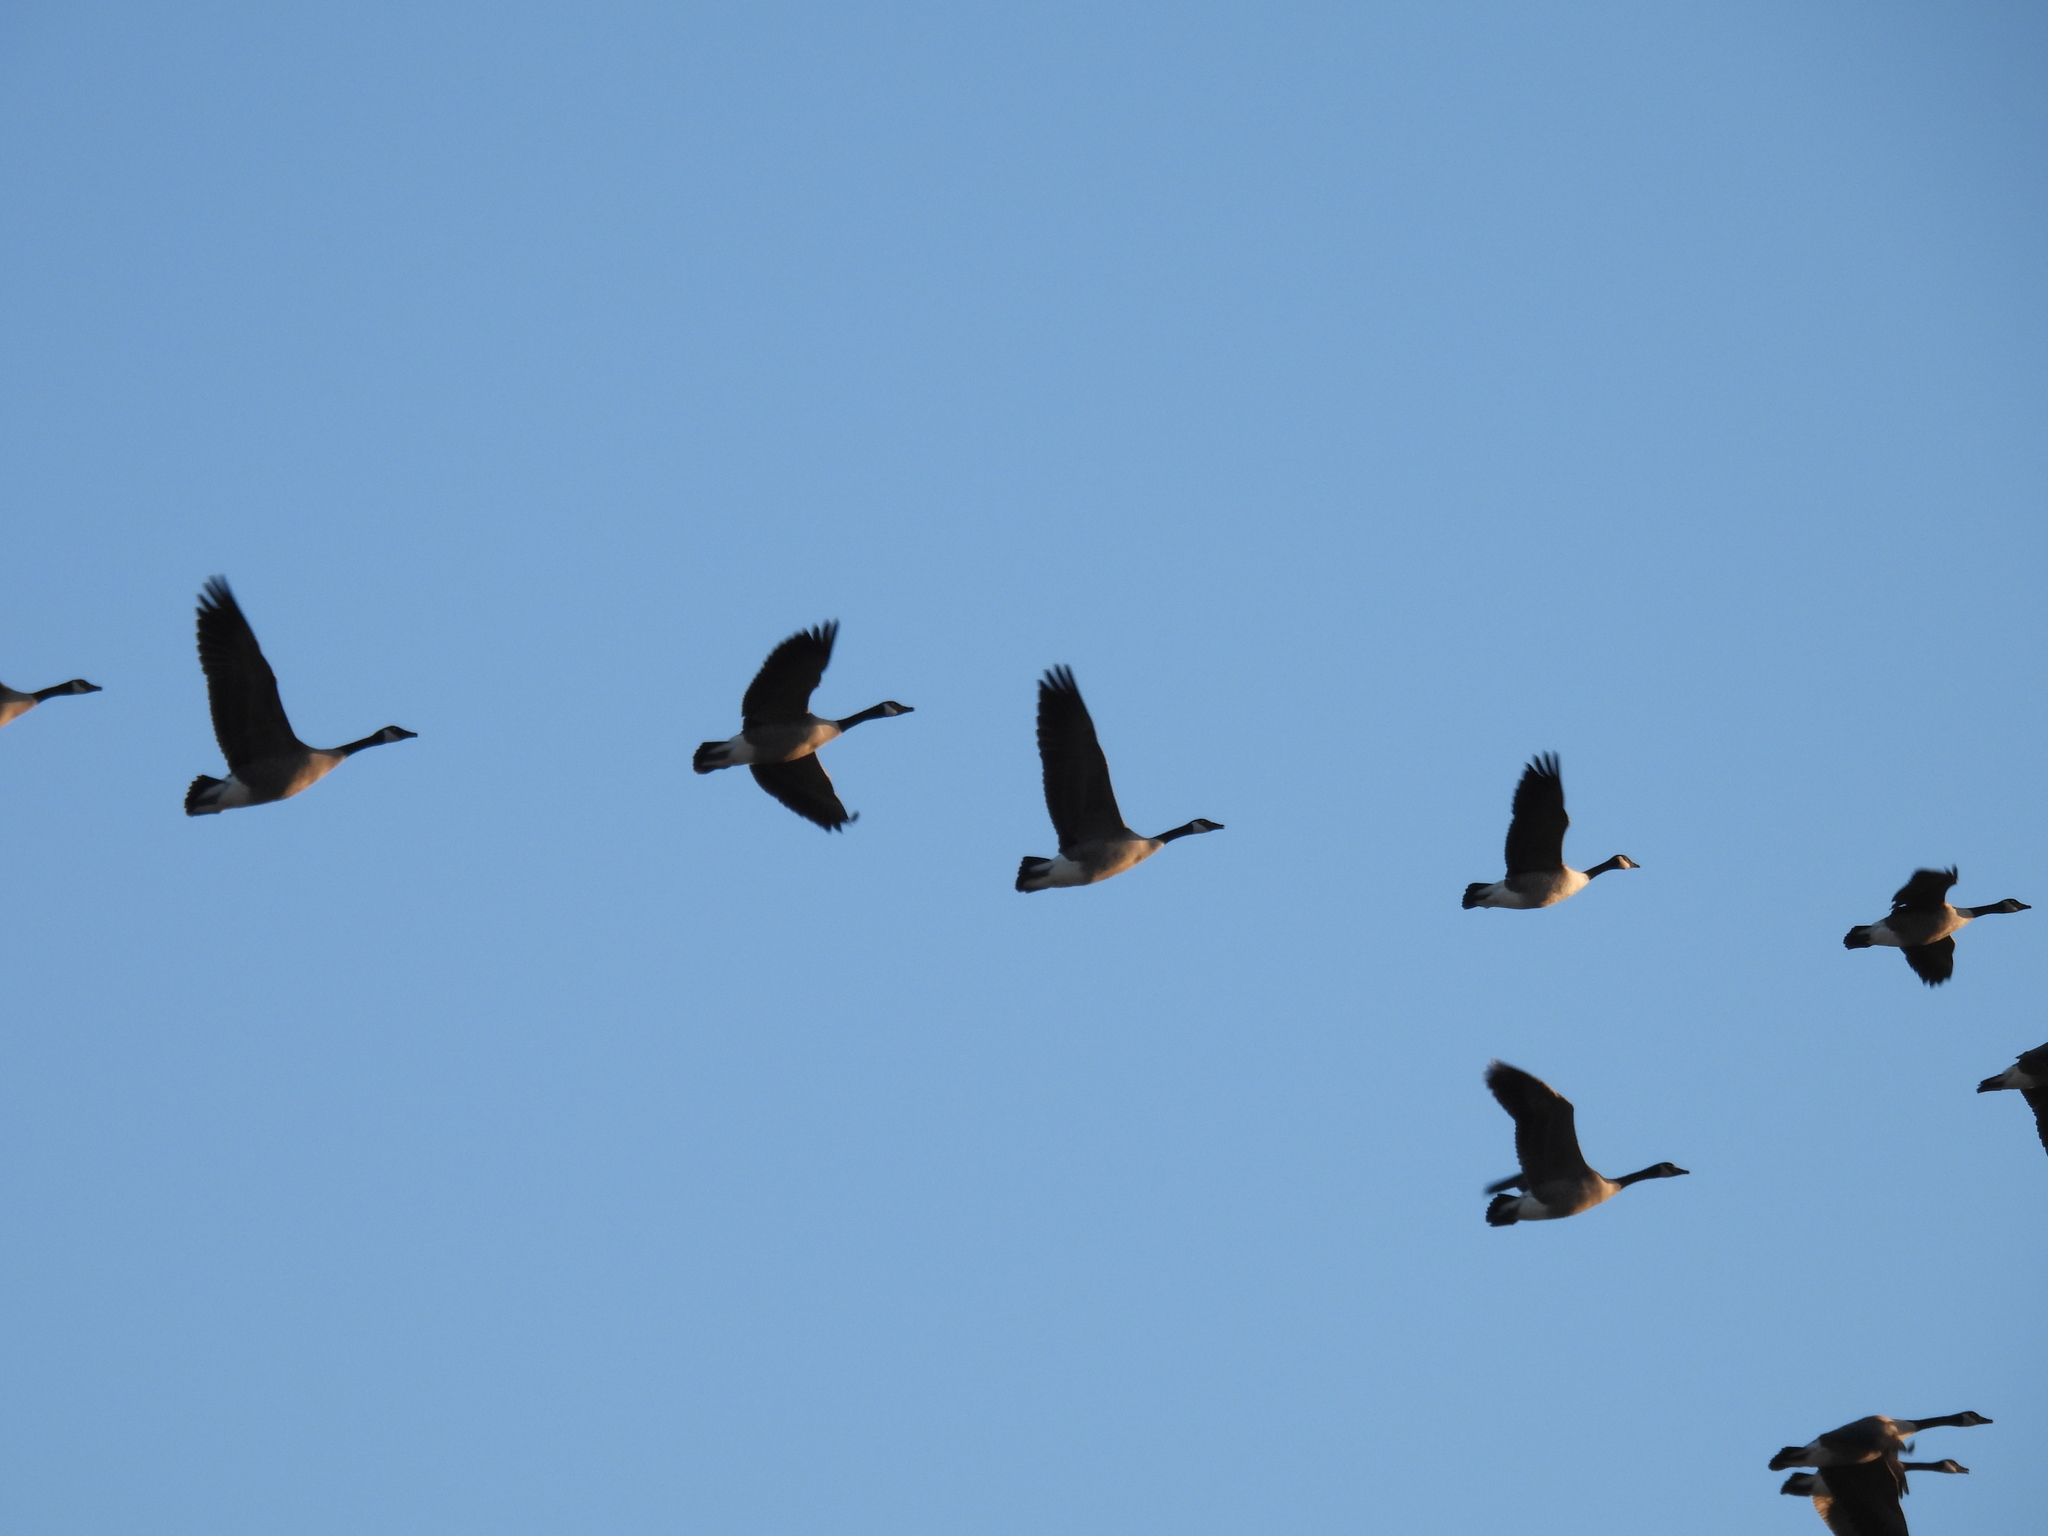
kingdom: Animalia
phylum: Chordata
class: Aves
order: Anseriformes
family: Anatidae
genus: Branta
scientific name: Branta canadensis
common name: Canada goose
